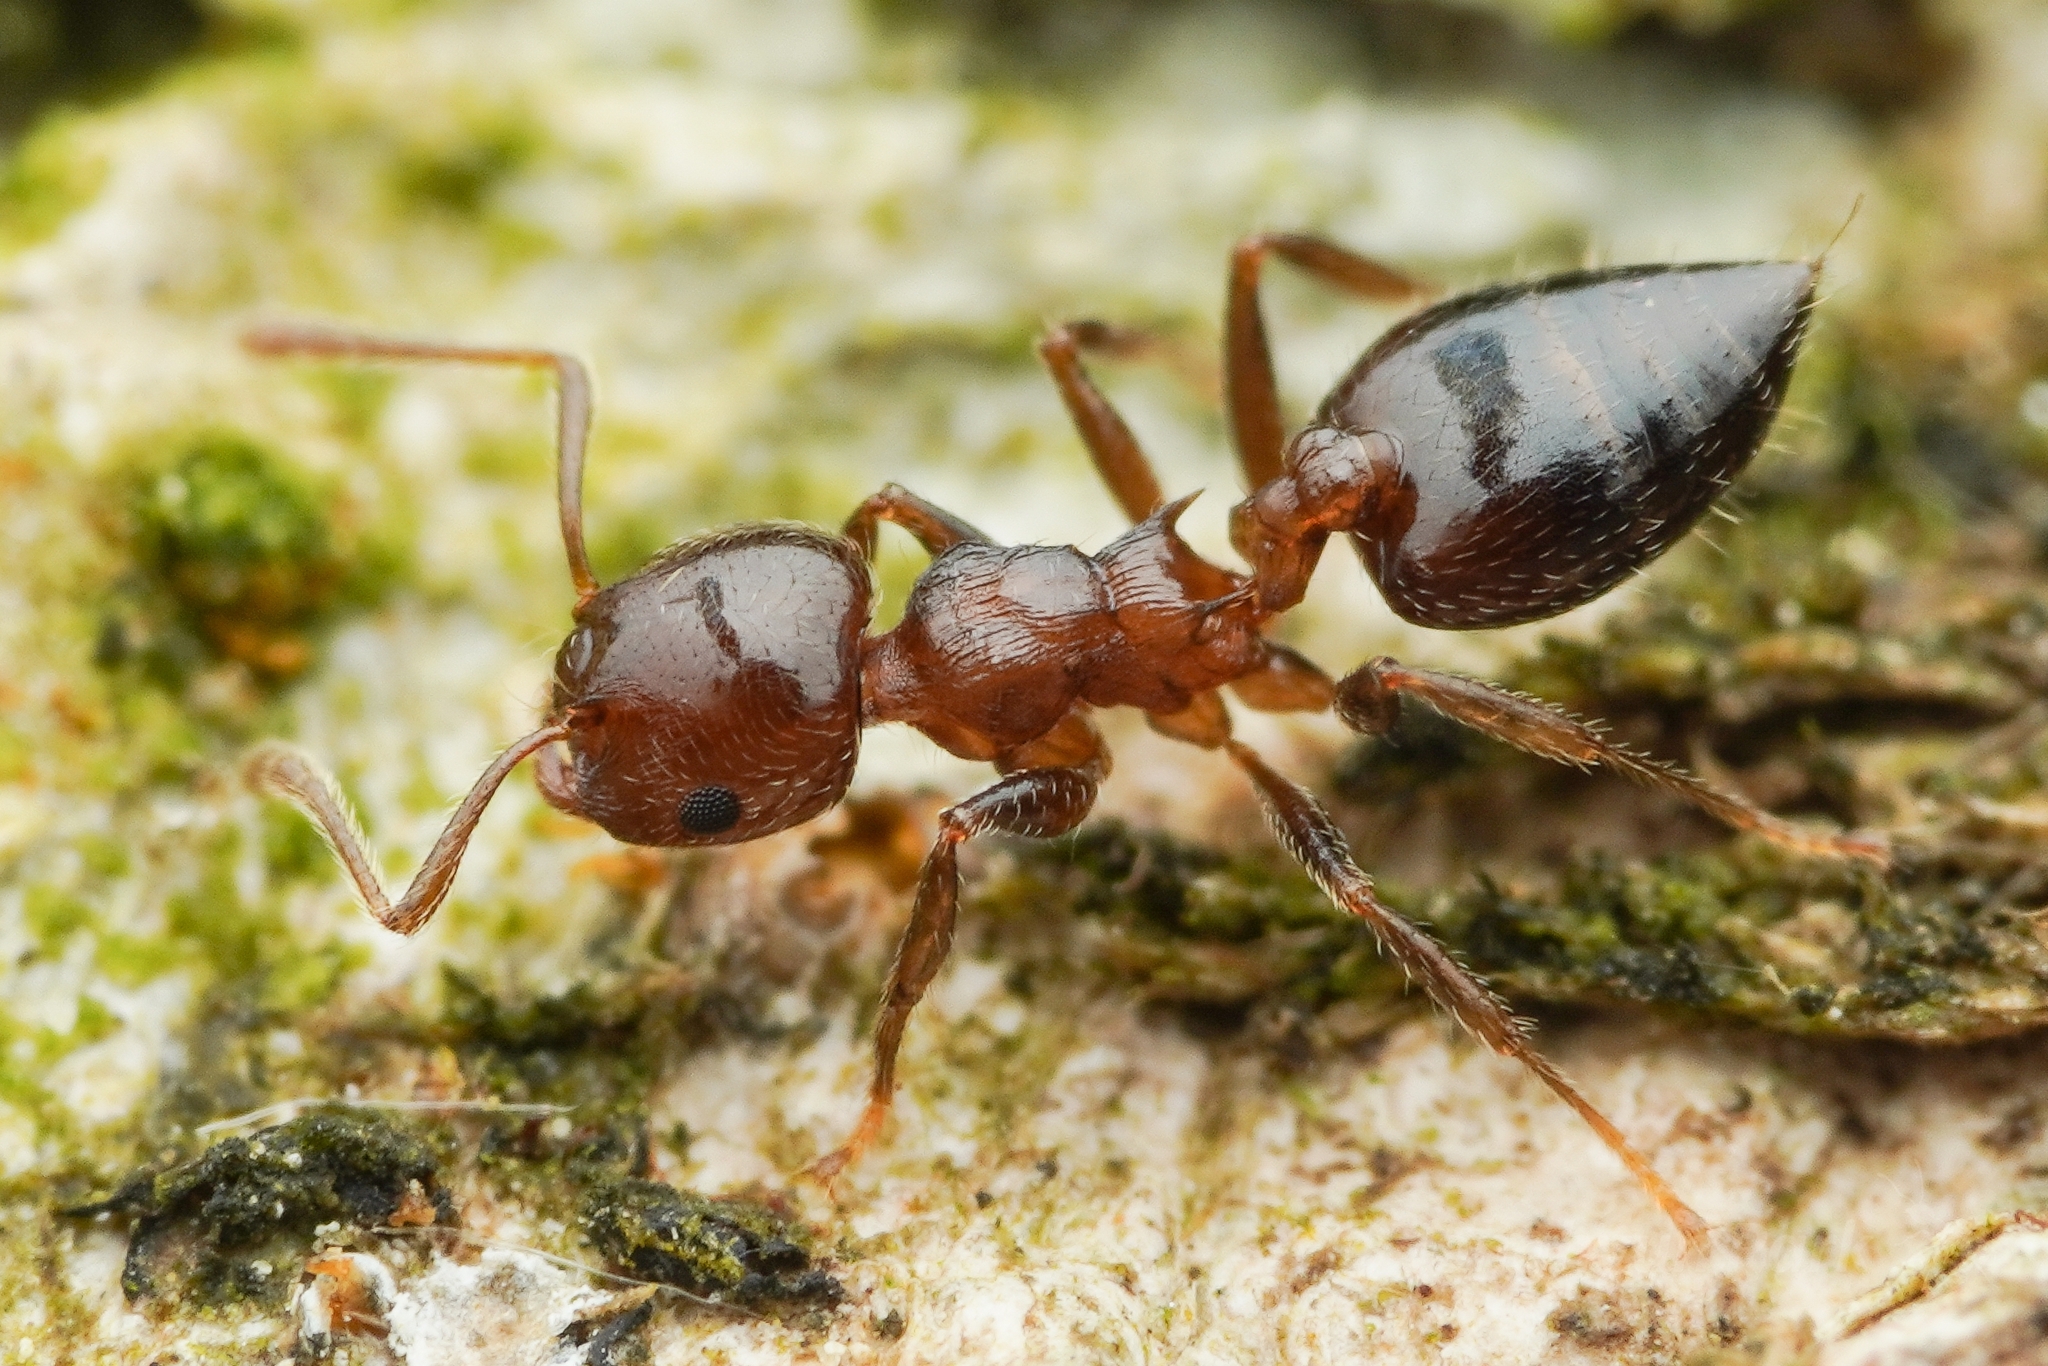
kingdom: Animalia
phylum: Arthropoda
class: Insecta
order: Hymenoptera
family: Formicidae
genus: Crematogaster
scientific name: Crematogaster teranishii
